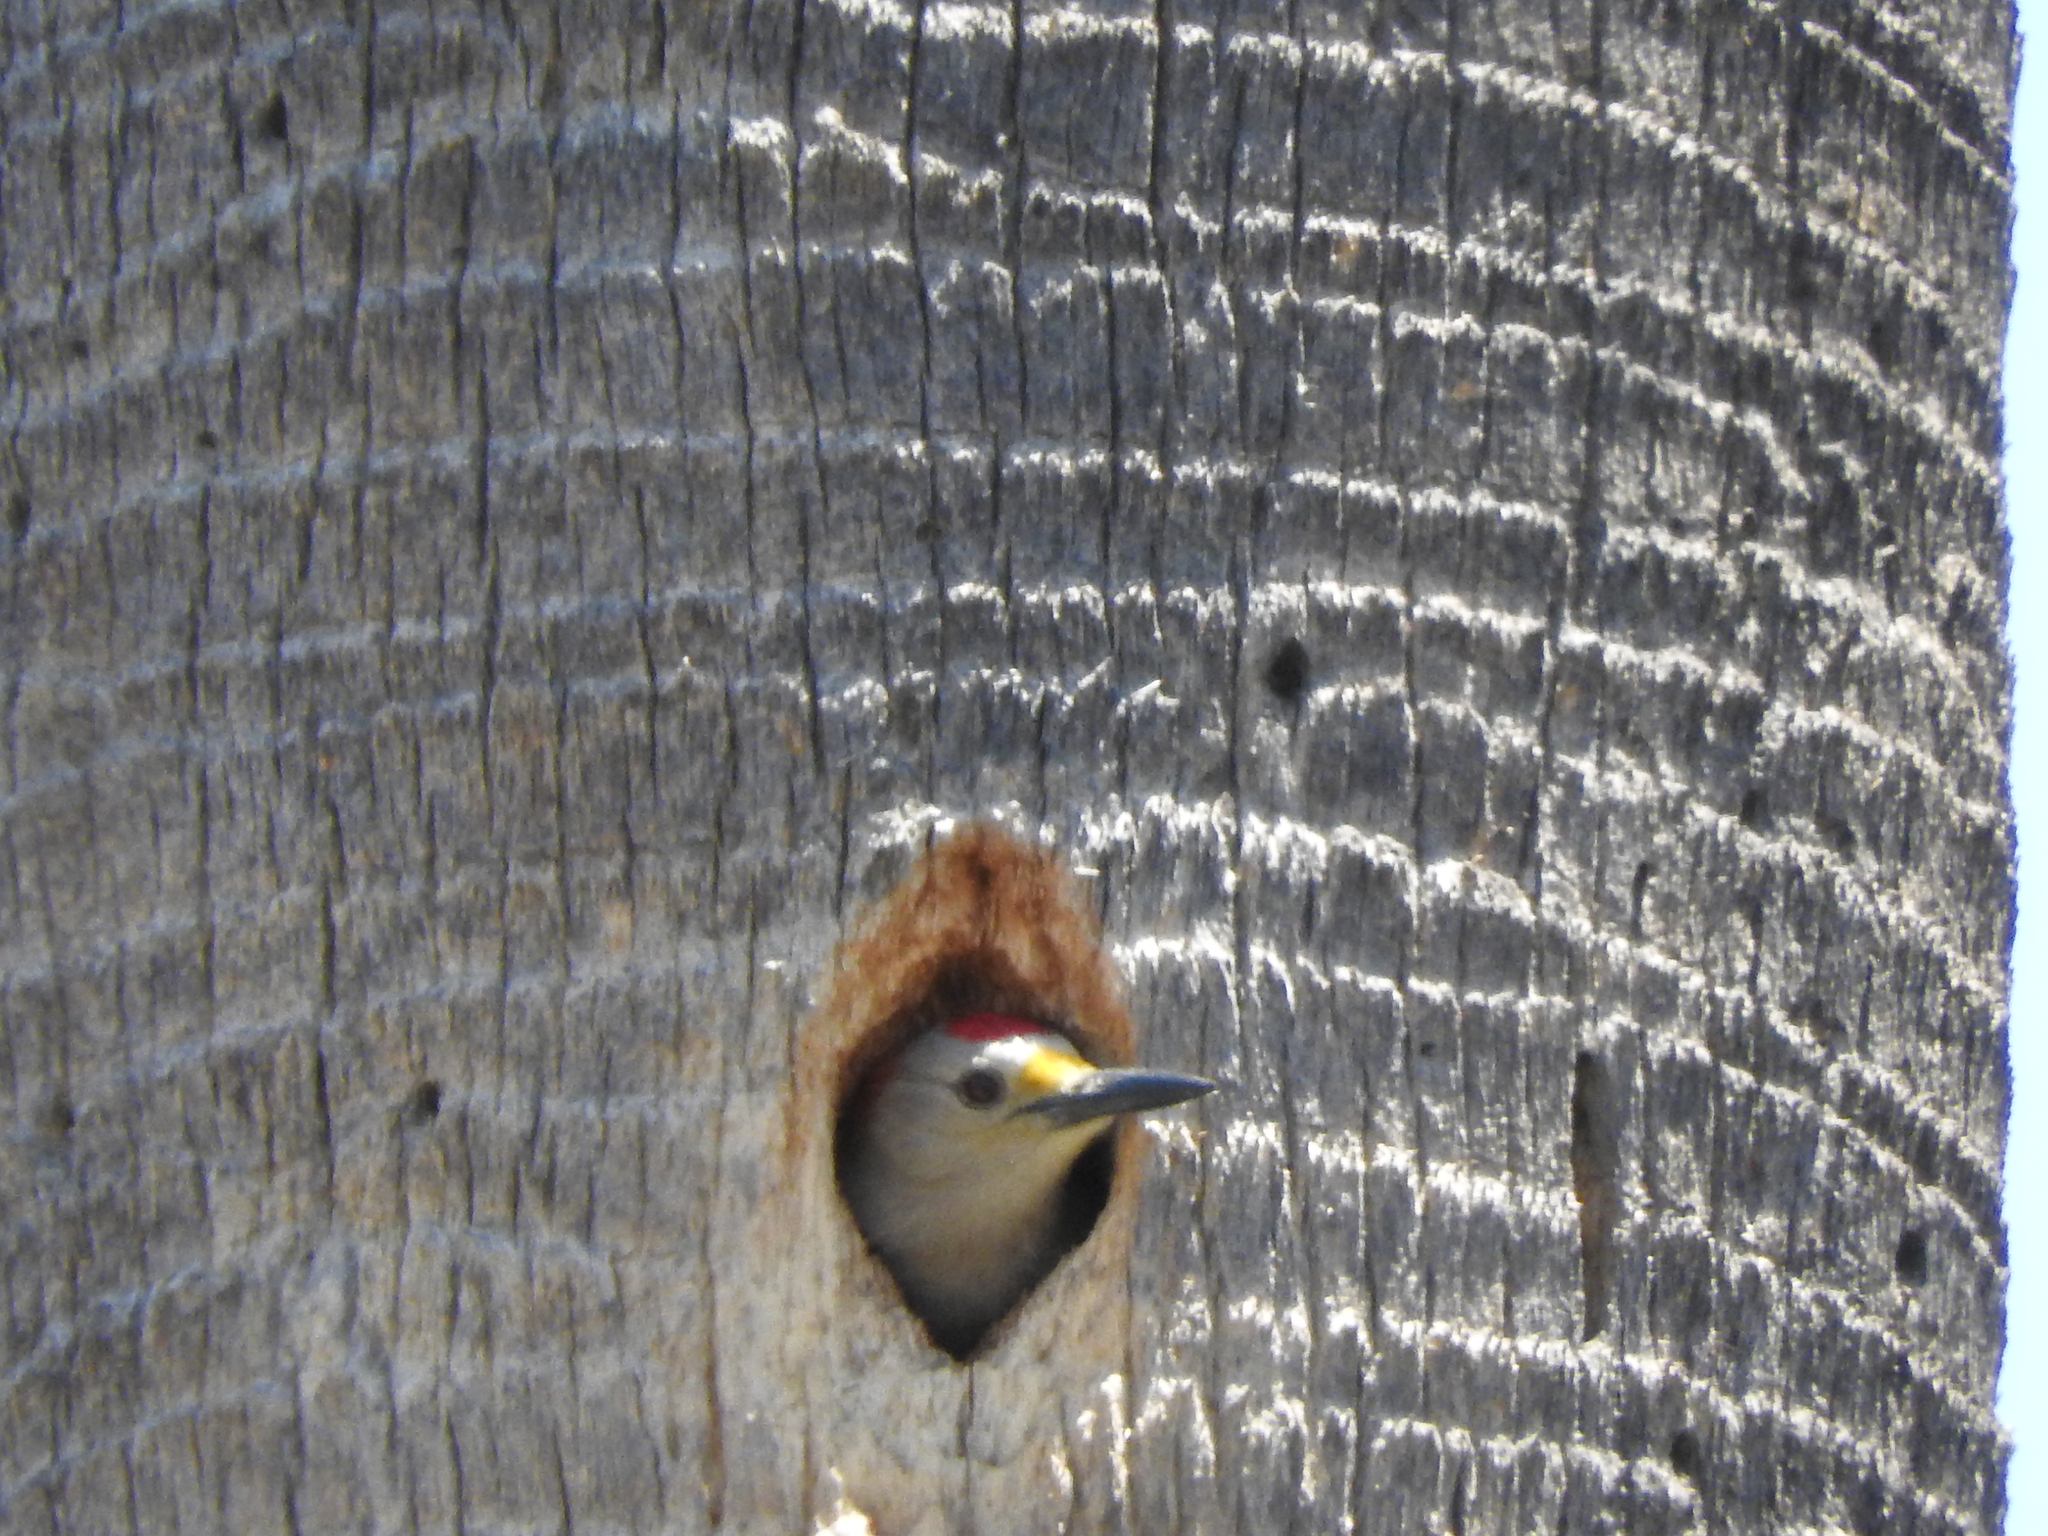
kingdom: Animalia
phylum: Chordata
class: Aves
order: Piciformes
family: Picidae
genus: Melanerpes
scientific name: Melanerpes aurifrons
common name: Golden-fronted woodpecker
